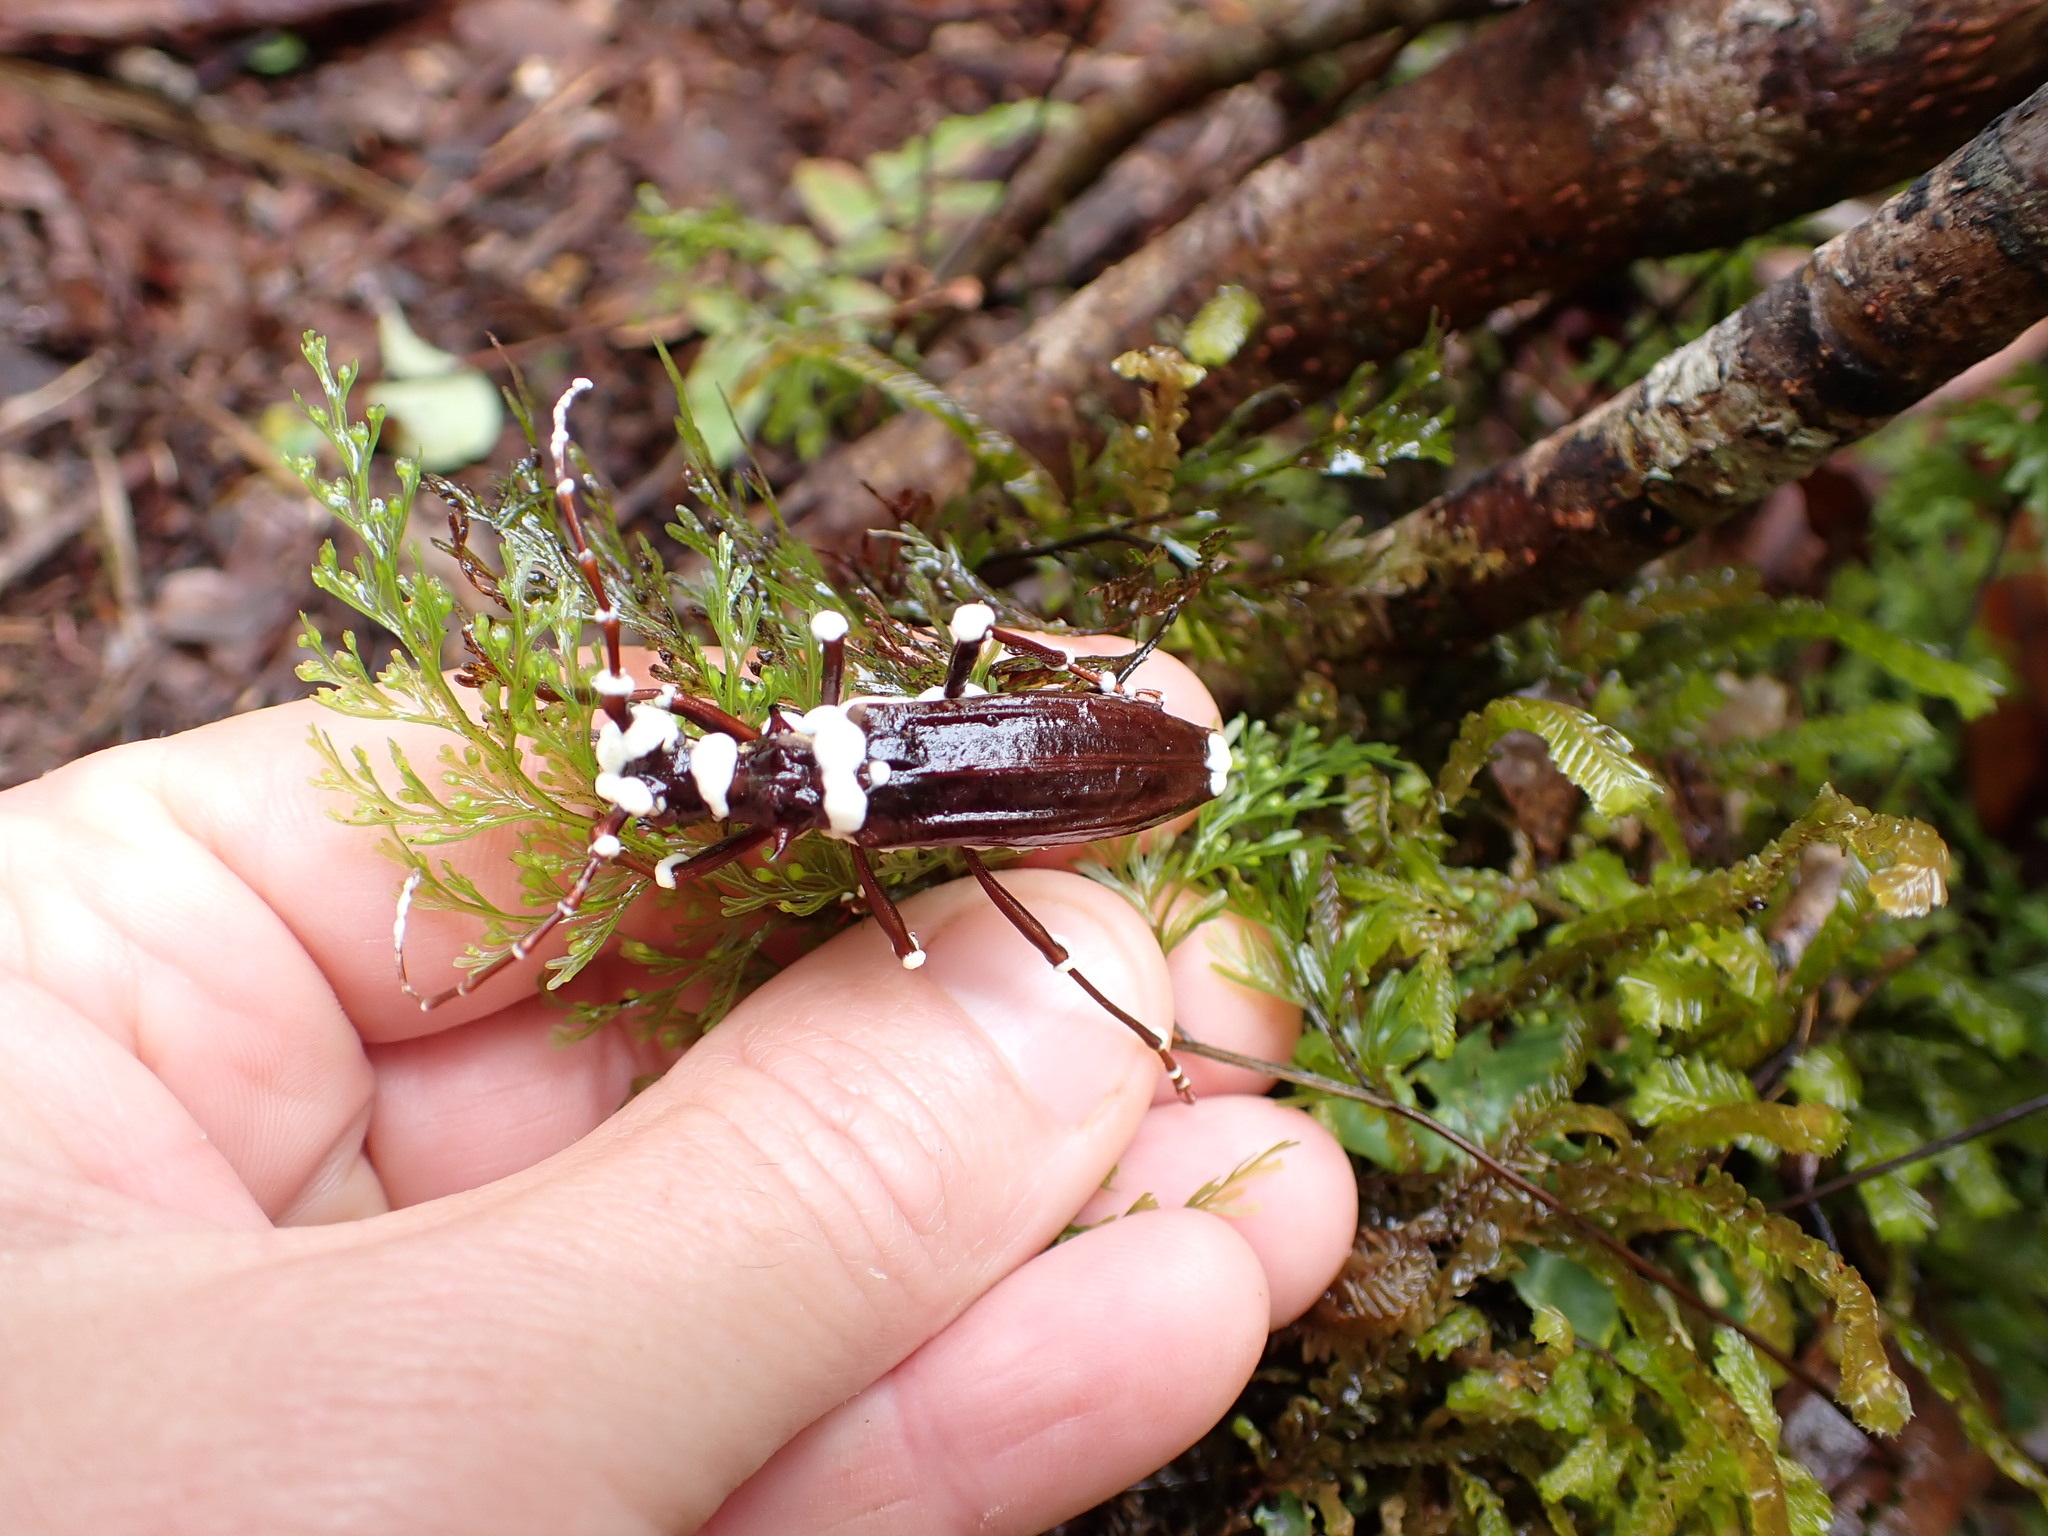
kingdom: Animalia
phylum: Arthropoda
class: Insecta
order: Coleoptera
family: Cerambycidae
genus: Blosyropus
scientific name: Blosyropus spinosus
